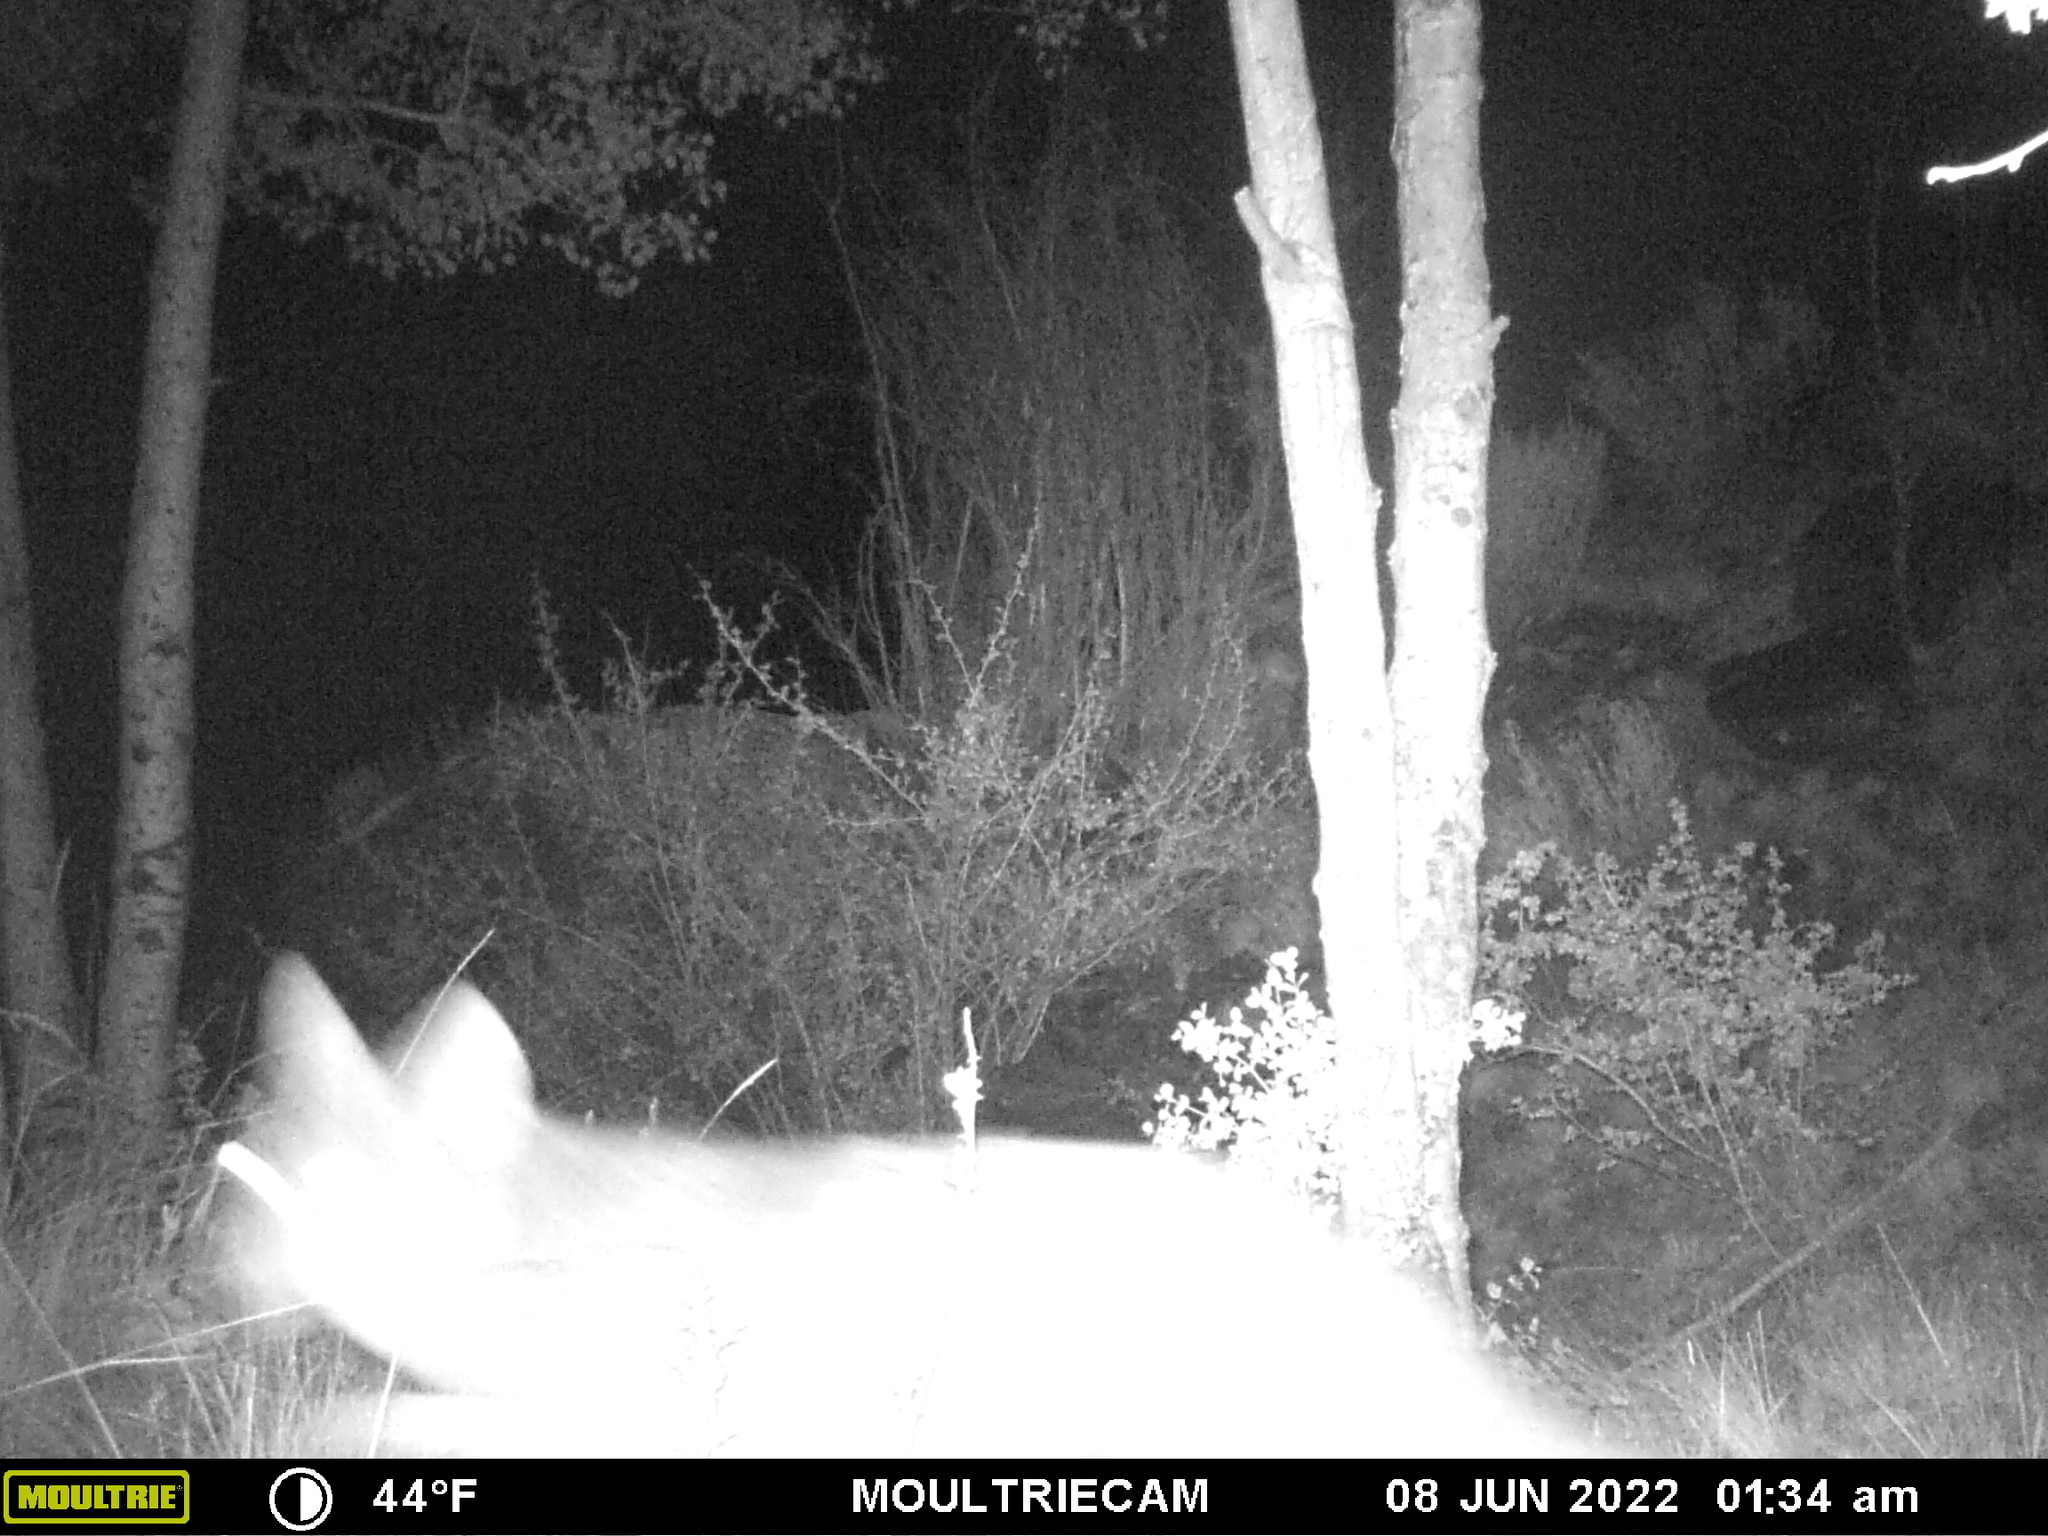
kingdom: Animalia
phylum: Chordata
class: Mammalia
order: Carnivora
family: Canidae
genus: Canis
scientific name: Canis latrans
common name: Coyote
